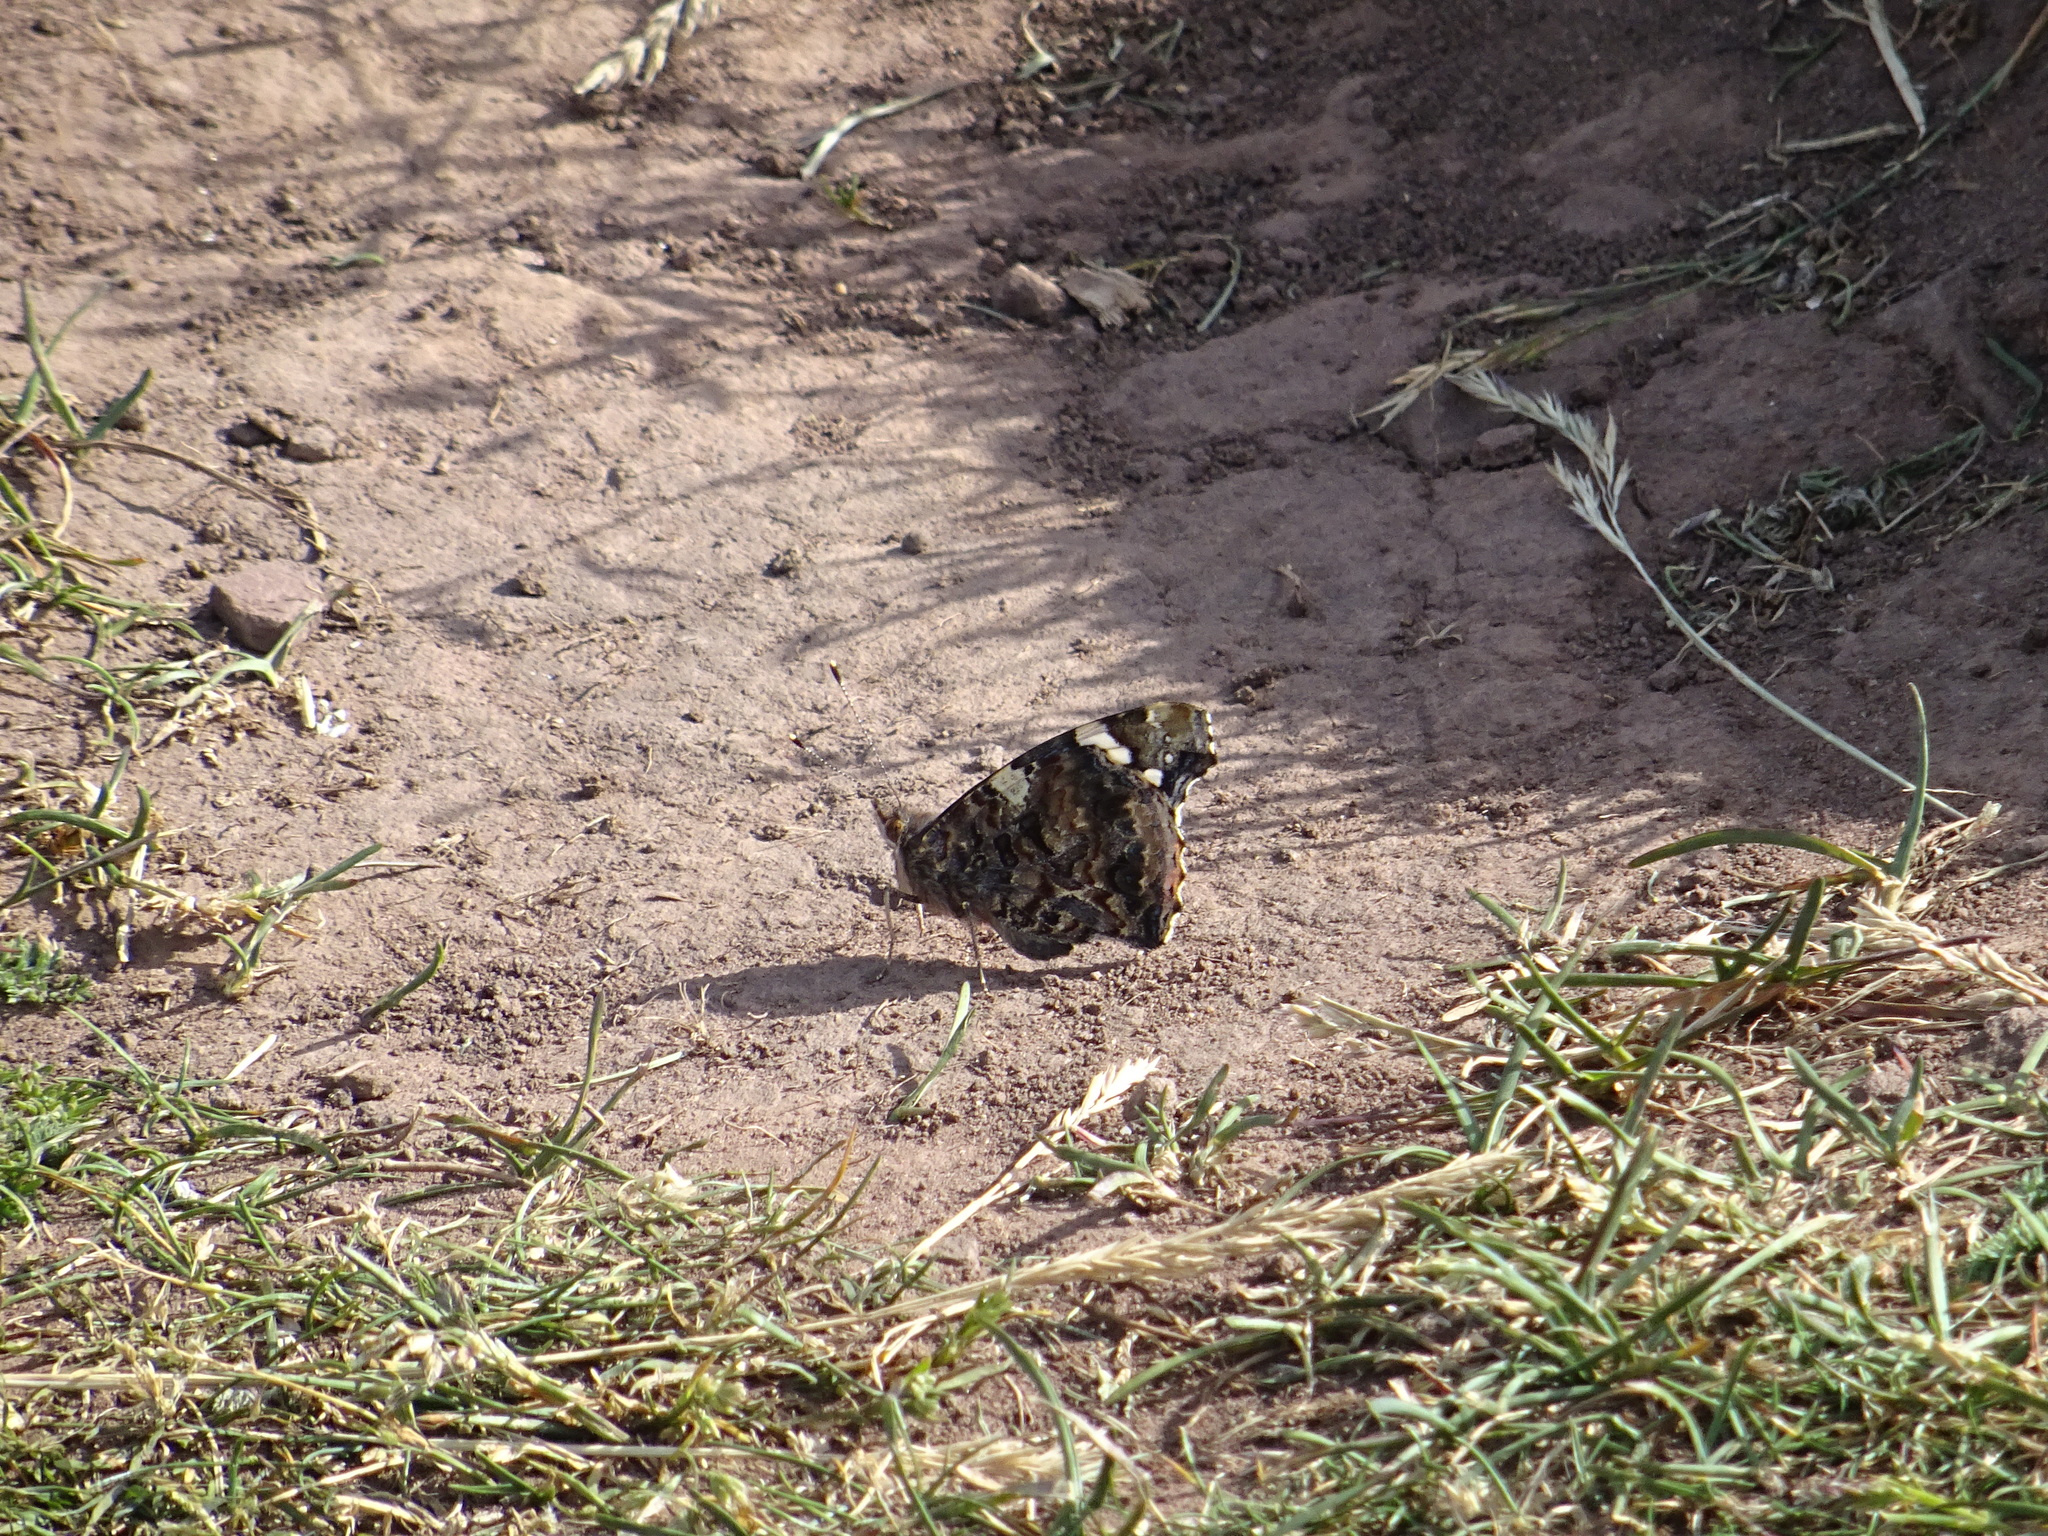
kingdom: Animalia
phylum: Arthropoda
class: Insecta
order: Lepidoptera
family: Nymphalidae
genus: Vanessa
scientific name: Vanessa atalanta
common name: Red admiral
